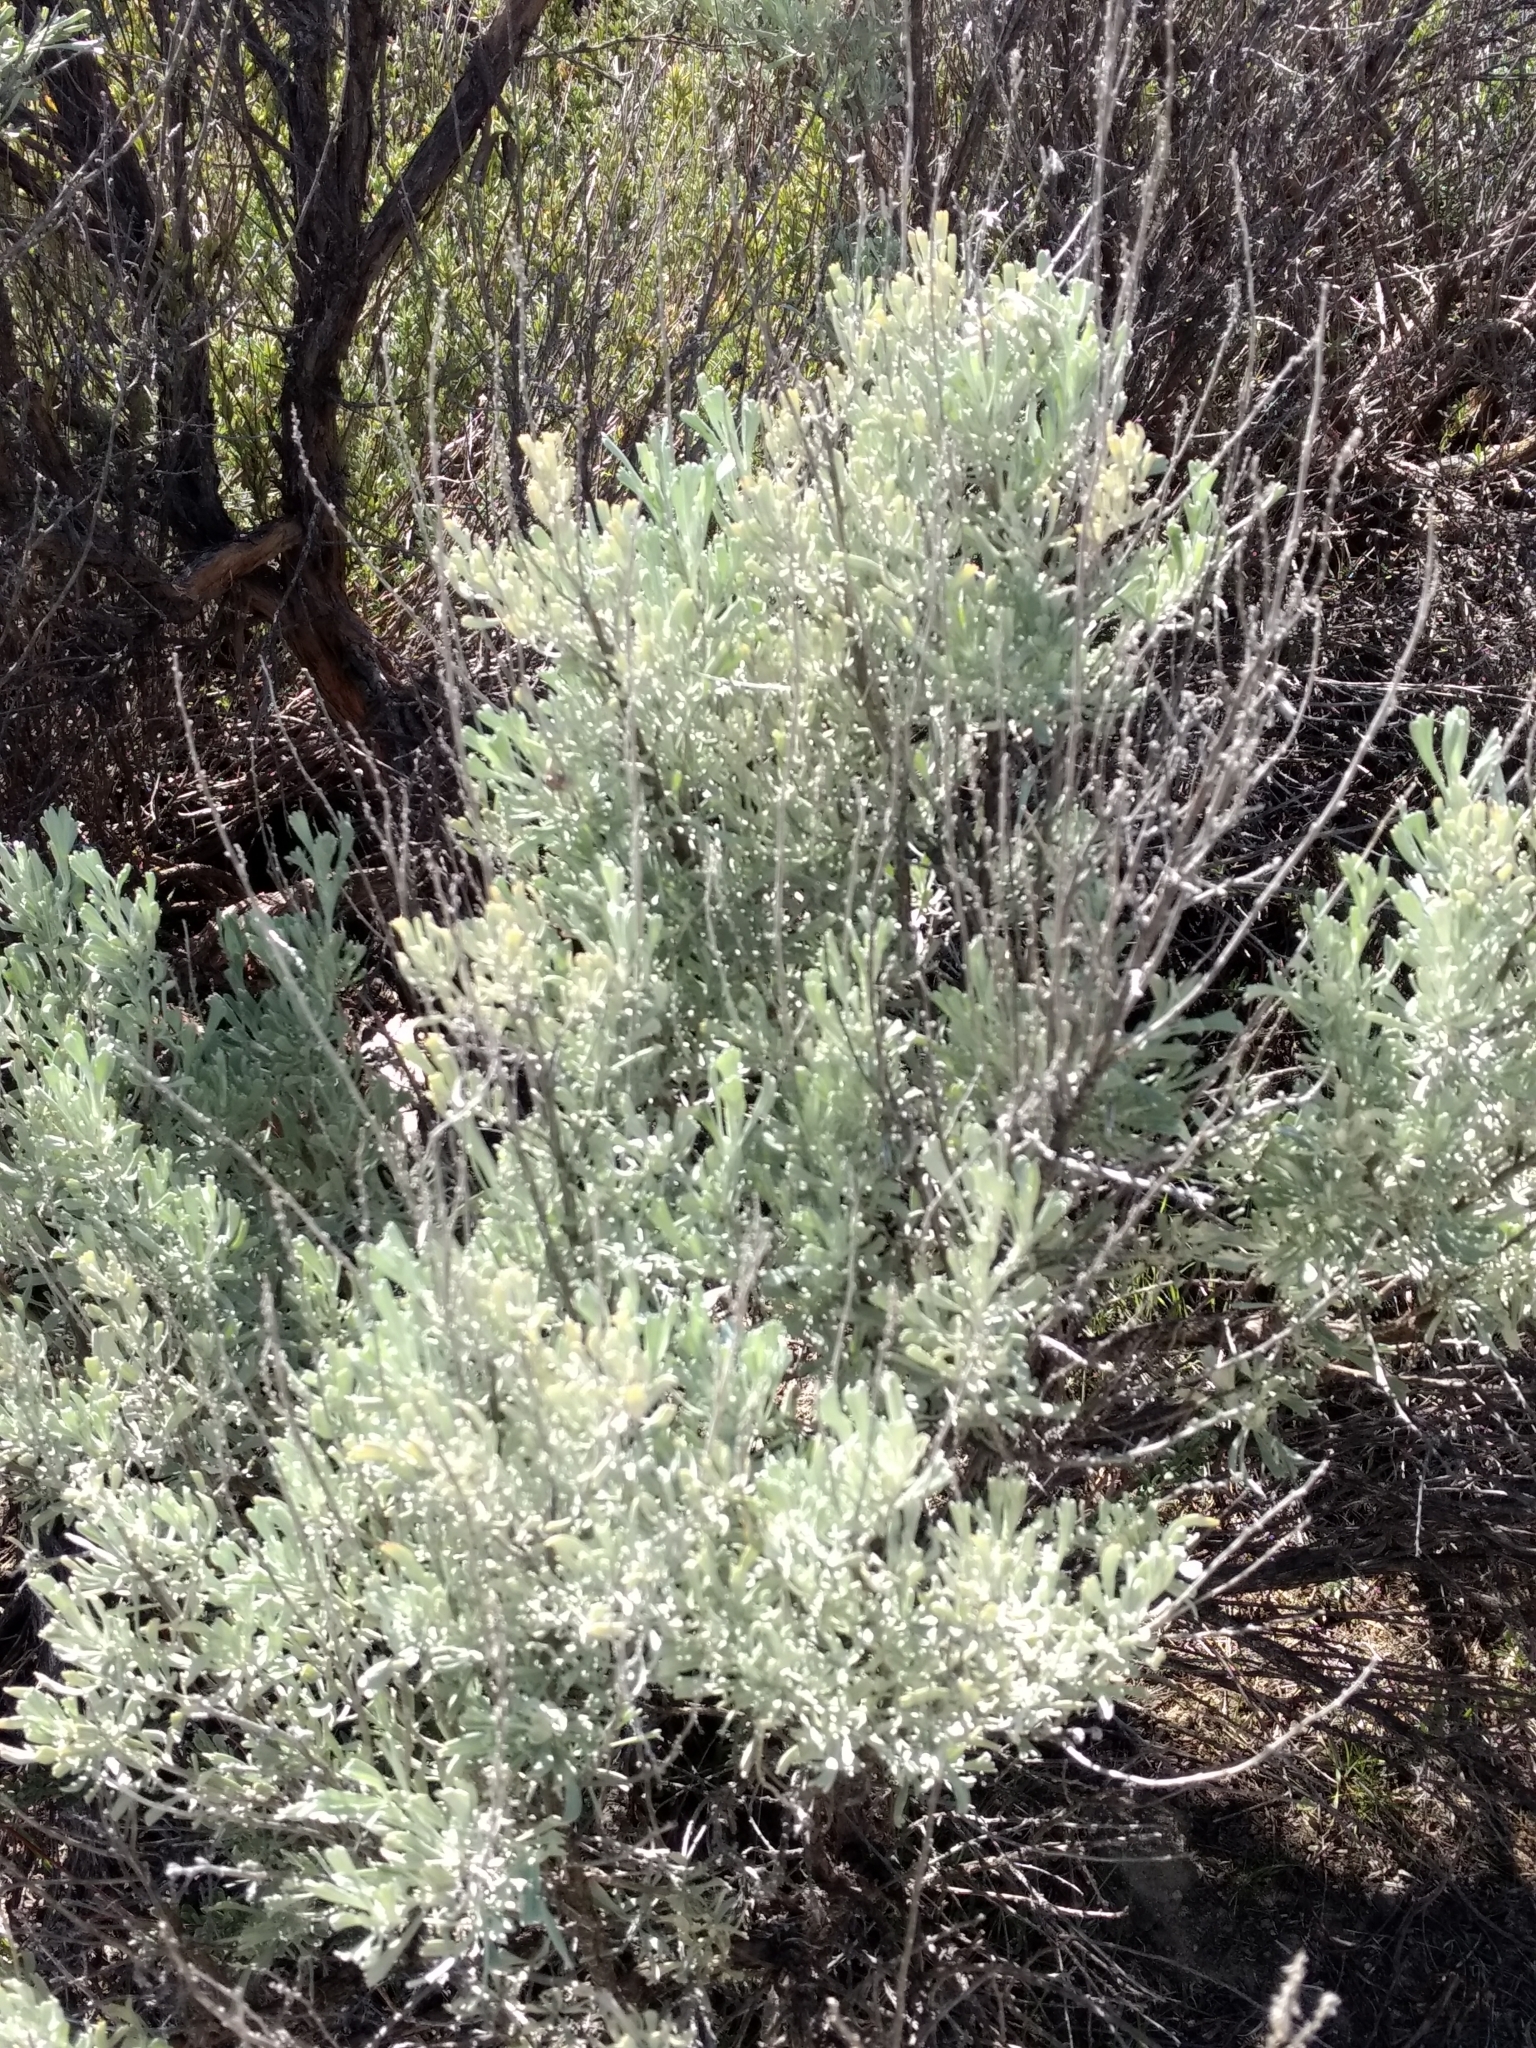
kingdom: Plantae
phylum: Tracheophyta
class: Magnoliopsida
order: Asterales
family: Asteraceae
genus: Artemisia
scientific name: Artemisia tridentata
